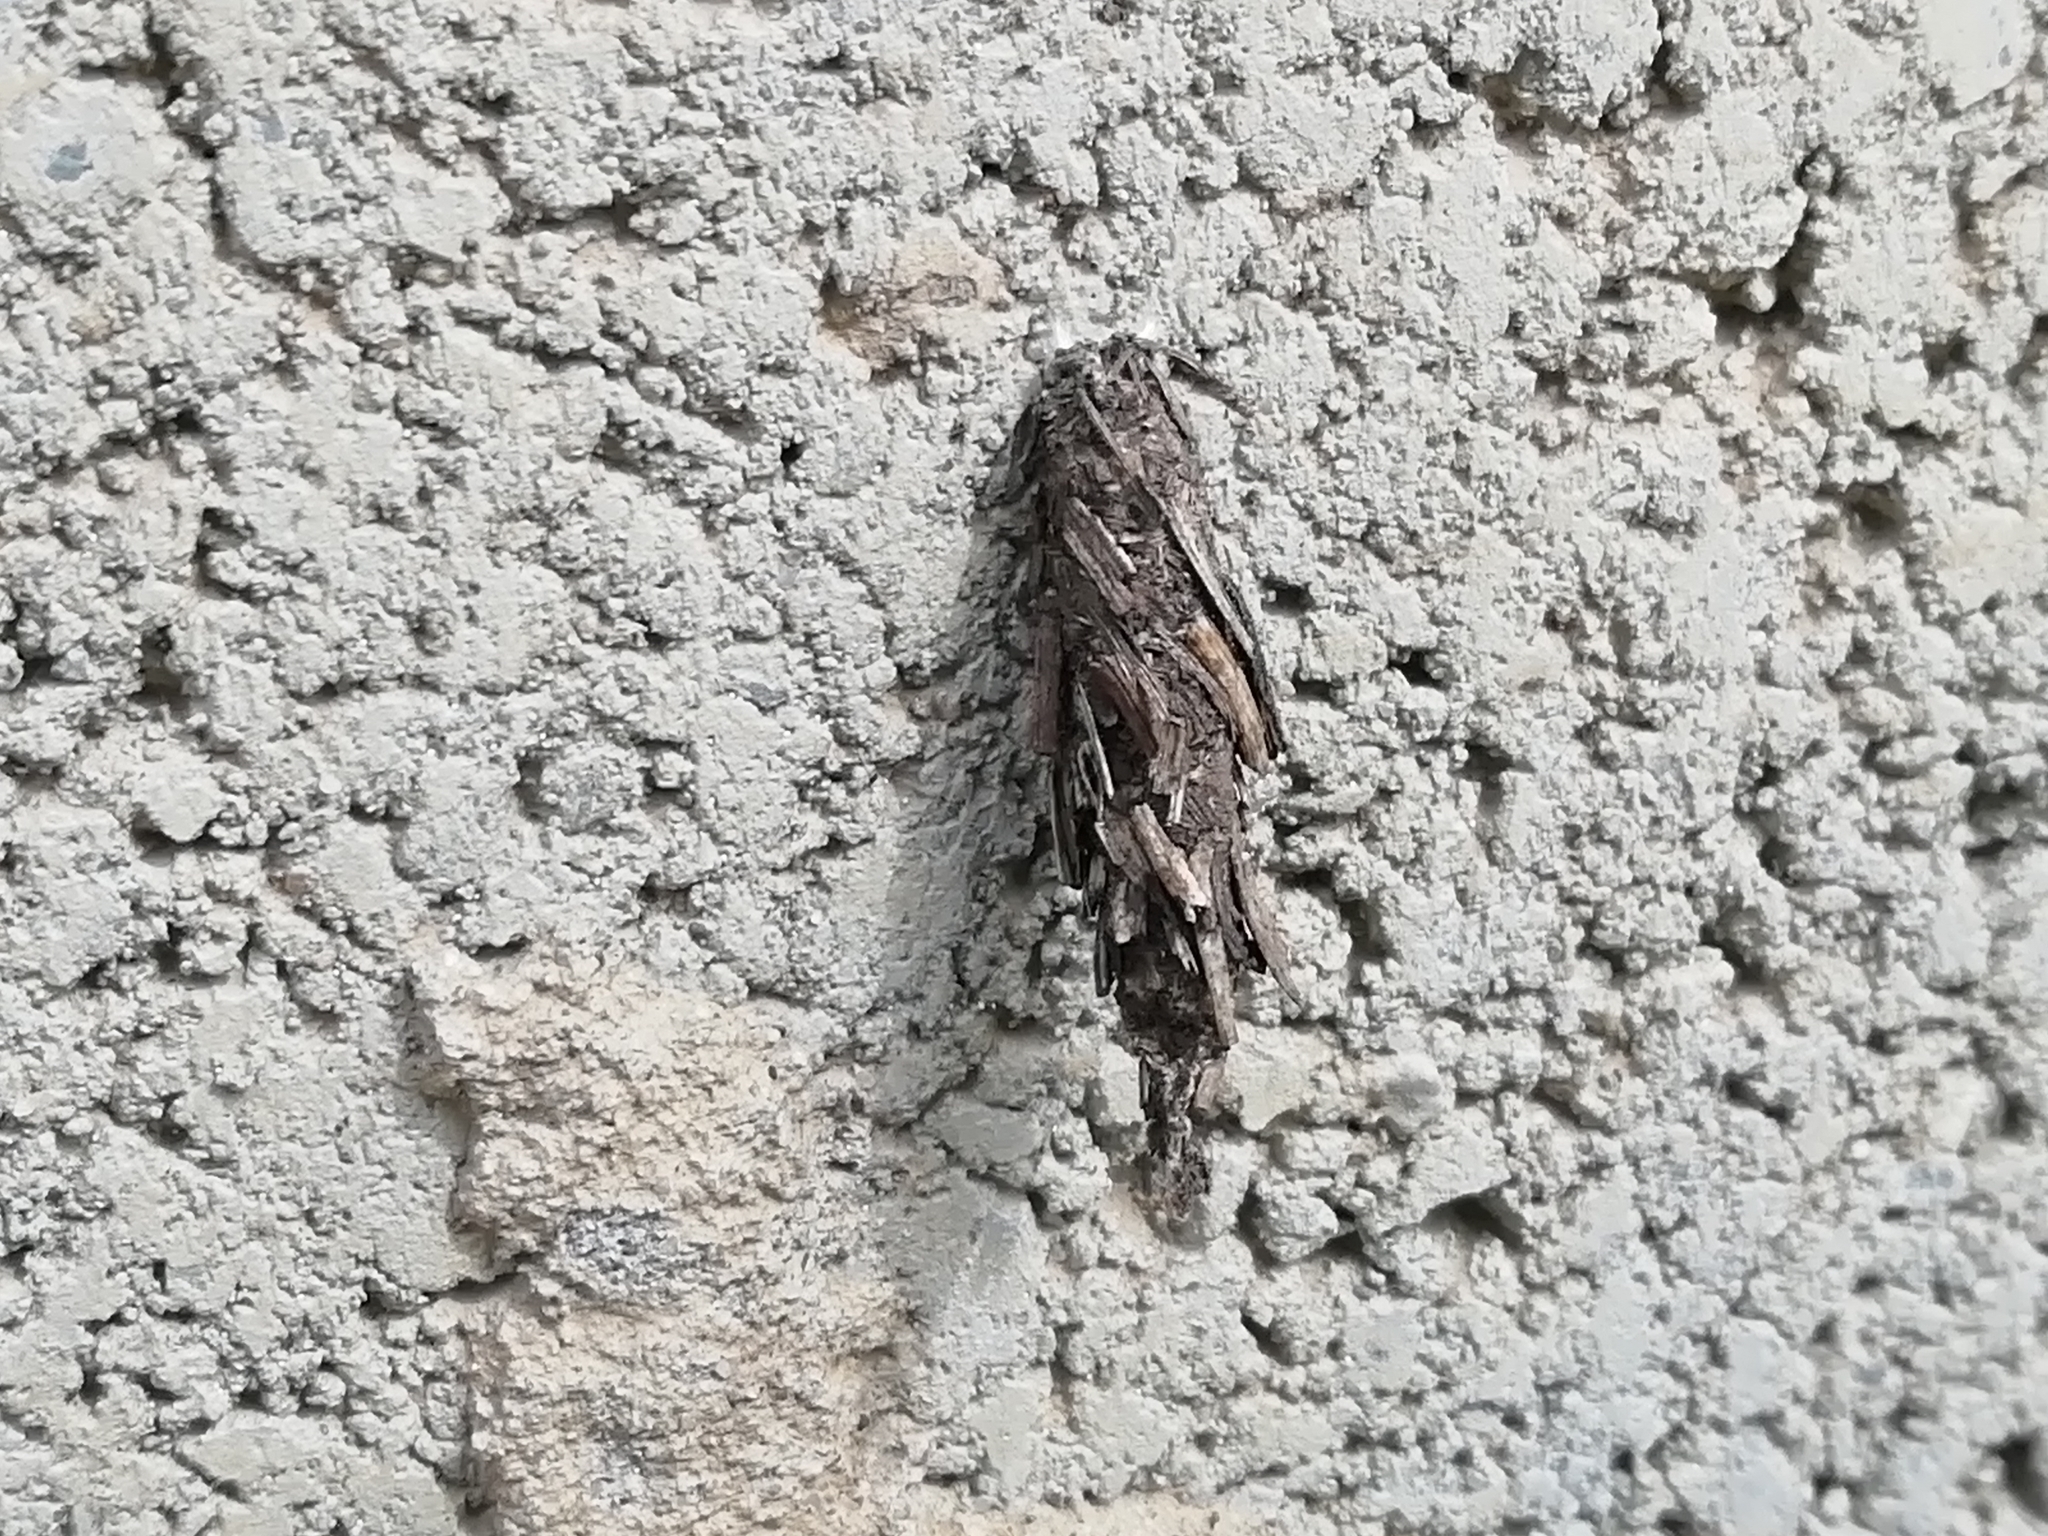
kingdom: Animalia
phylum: Arthropoda
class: Insecta
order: Lepidoptera
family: Psychidae
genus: Canephora
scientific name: Canephora hirsuta
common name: Hairy sweep
